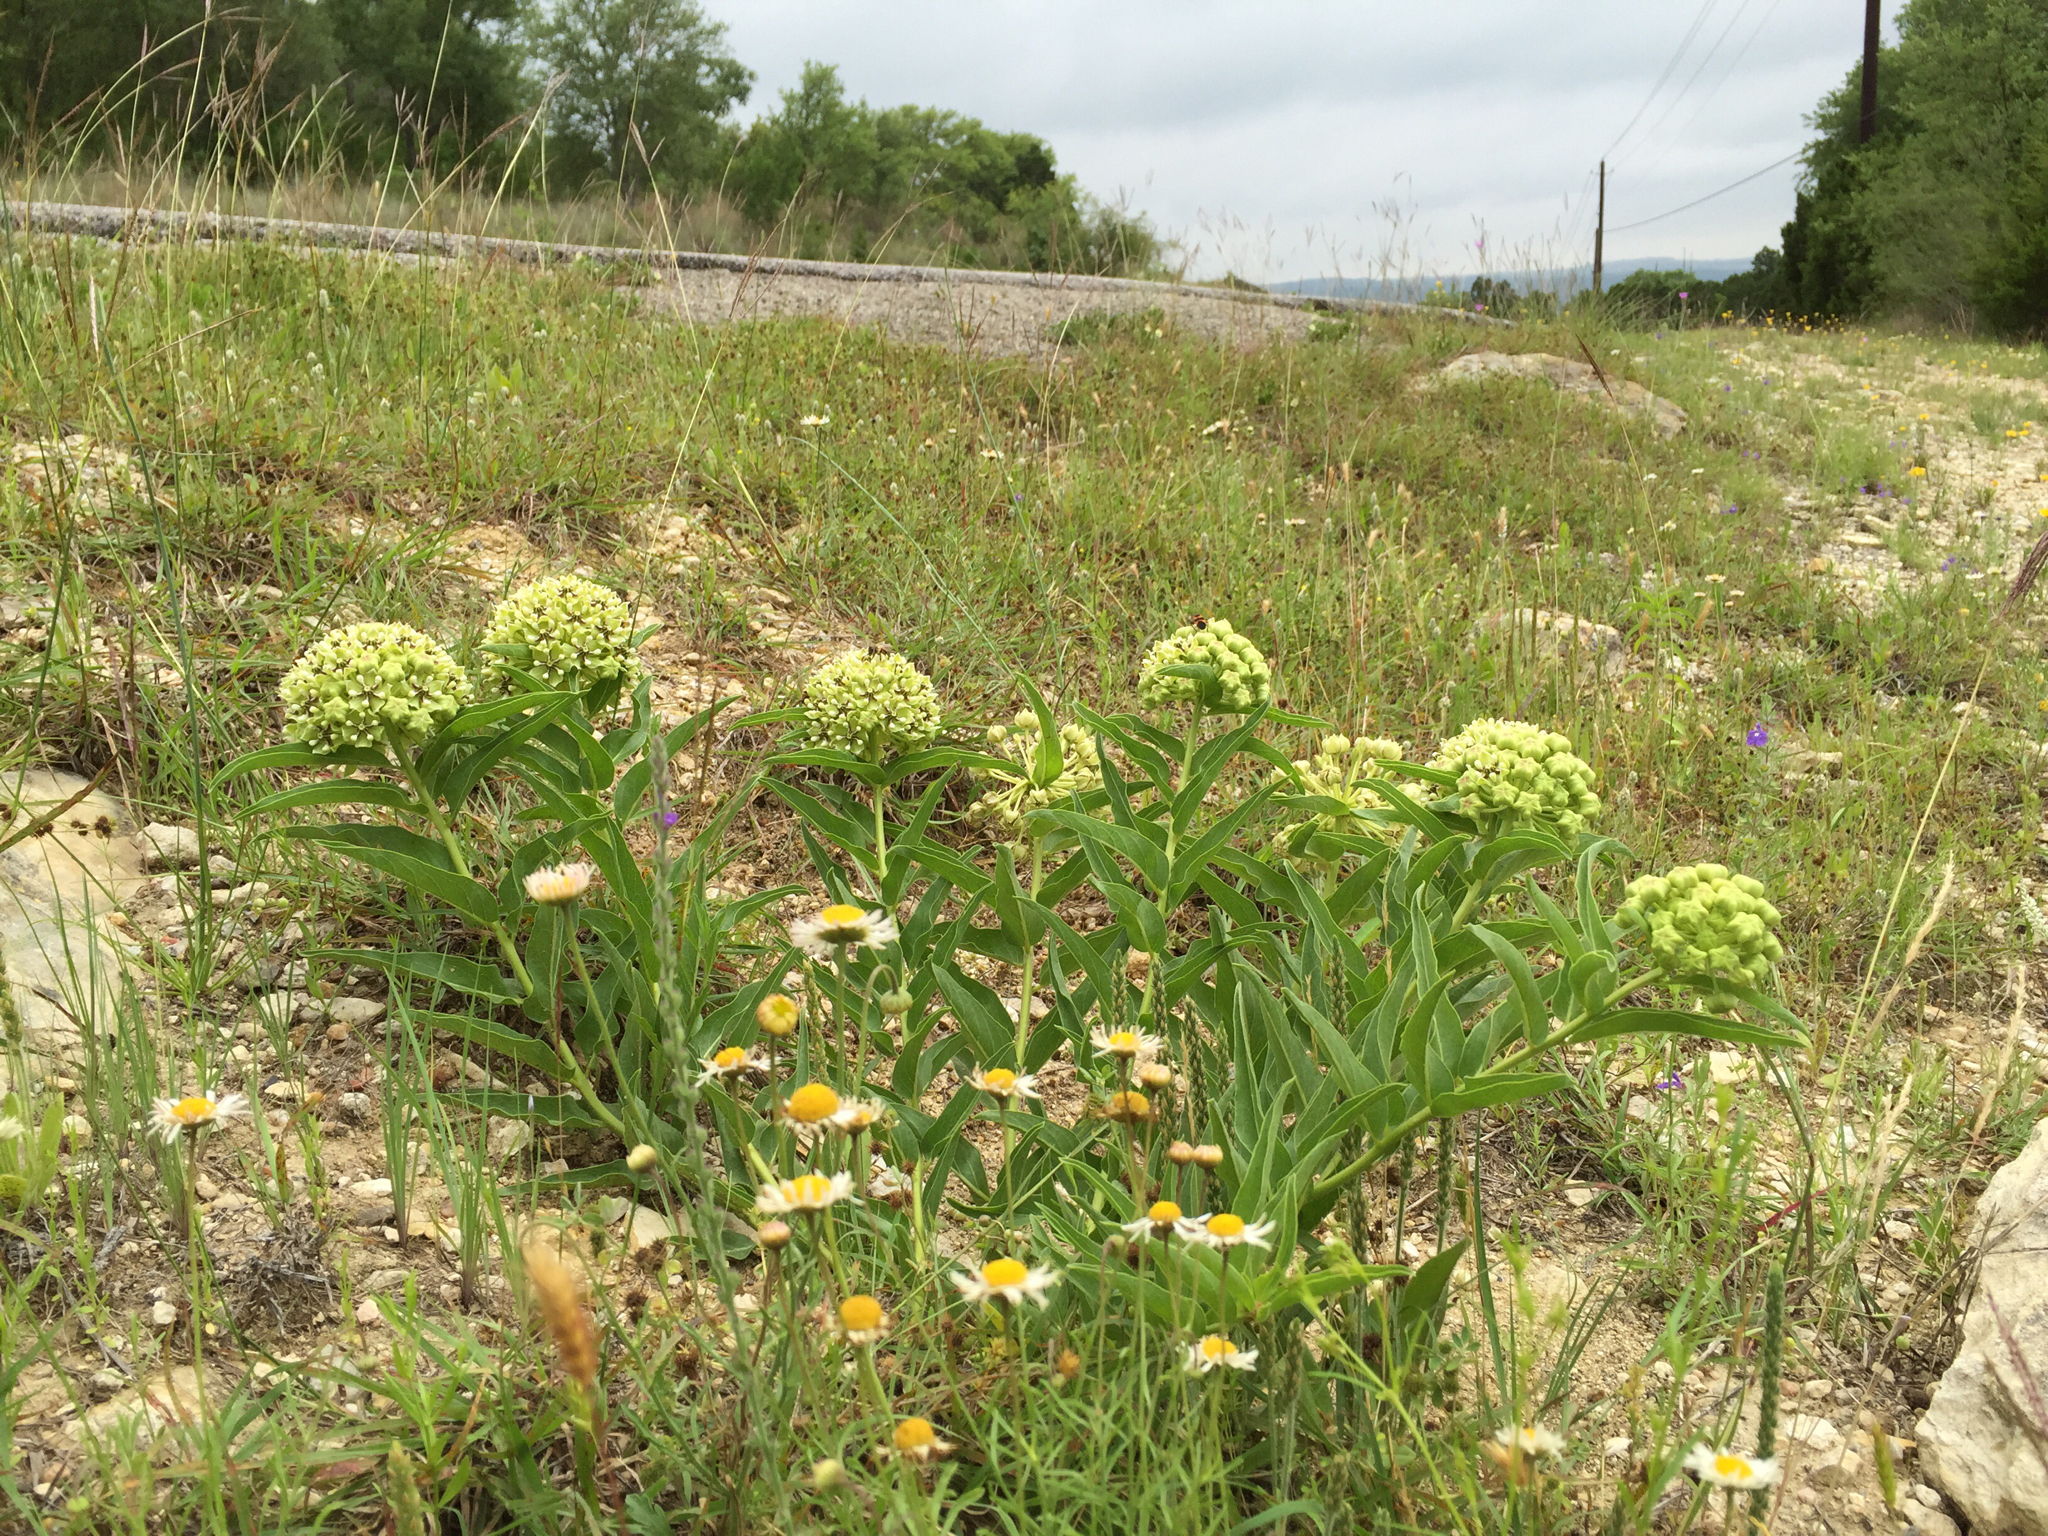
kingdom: Plantae
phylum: Tracheophyta
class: Magnoliopsida
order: Gentianales
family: Apocynaceae
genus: Asclepias
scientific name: Asclepias asperula
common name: Antelope horns
